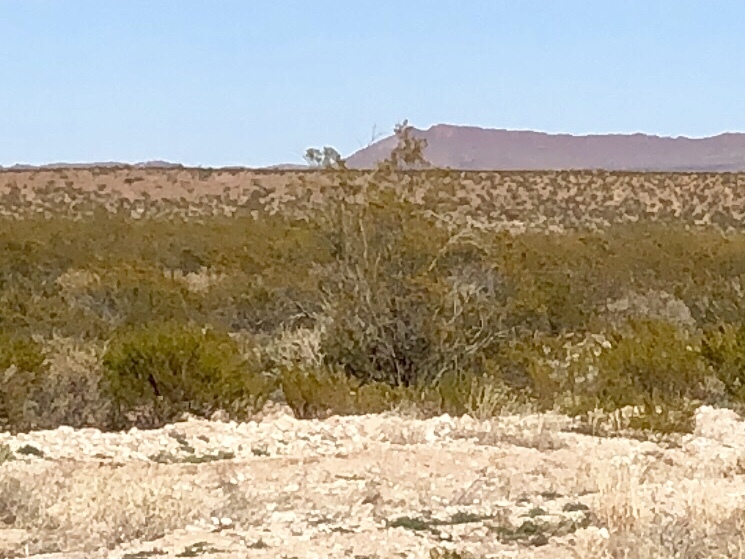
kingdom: Plantae
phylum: Tracheophyta
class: Magnoliopsida
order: Zygophyllales
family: Zygophyllaceae
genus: Larrea
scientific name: Larrea tridentata
